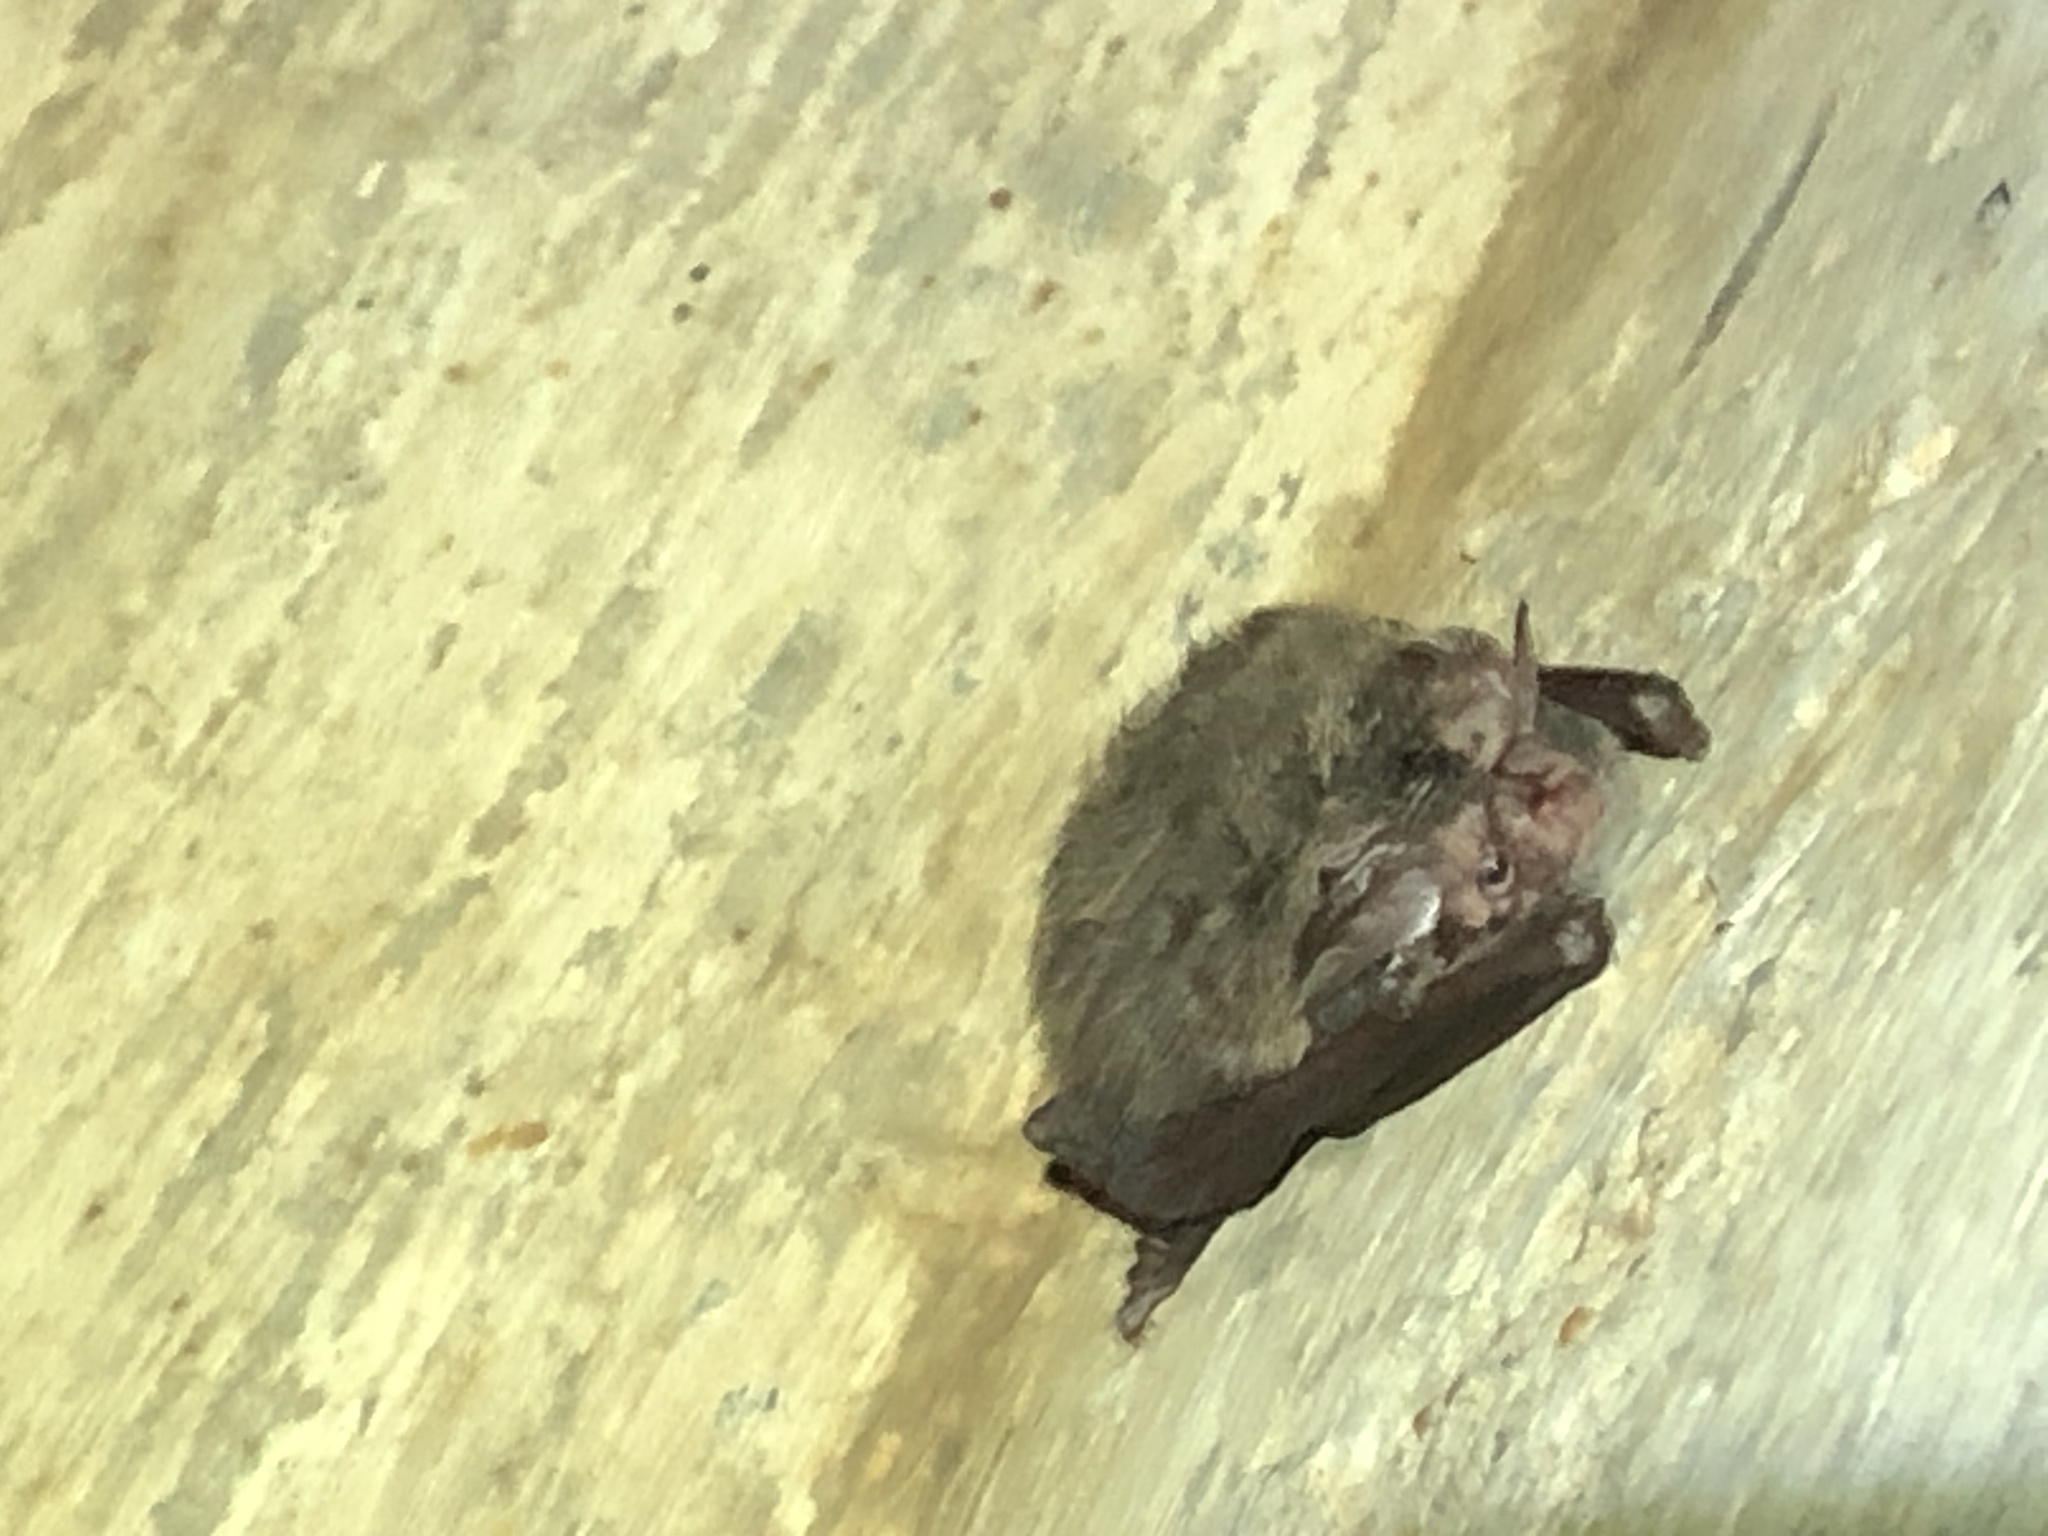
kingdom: Animalia
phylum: Chordata
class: Mammalia
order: Chiroptera
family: Vespertilionidae
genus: Corynorhinus
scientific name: Corynorhinus rafinesquii
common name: Rafinesque's big-eared bat
